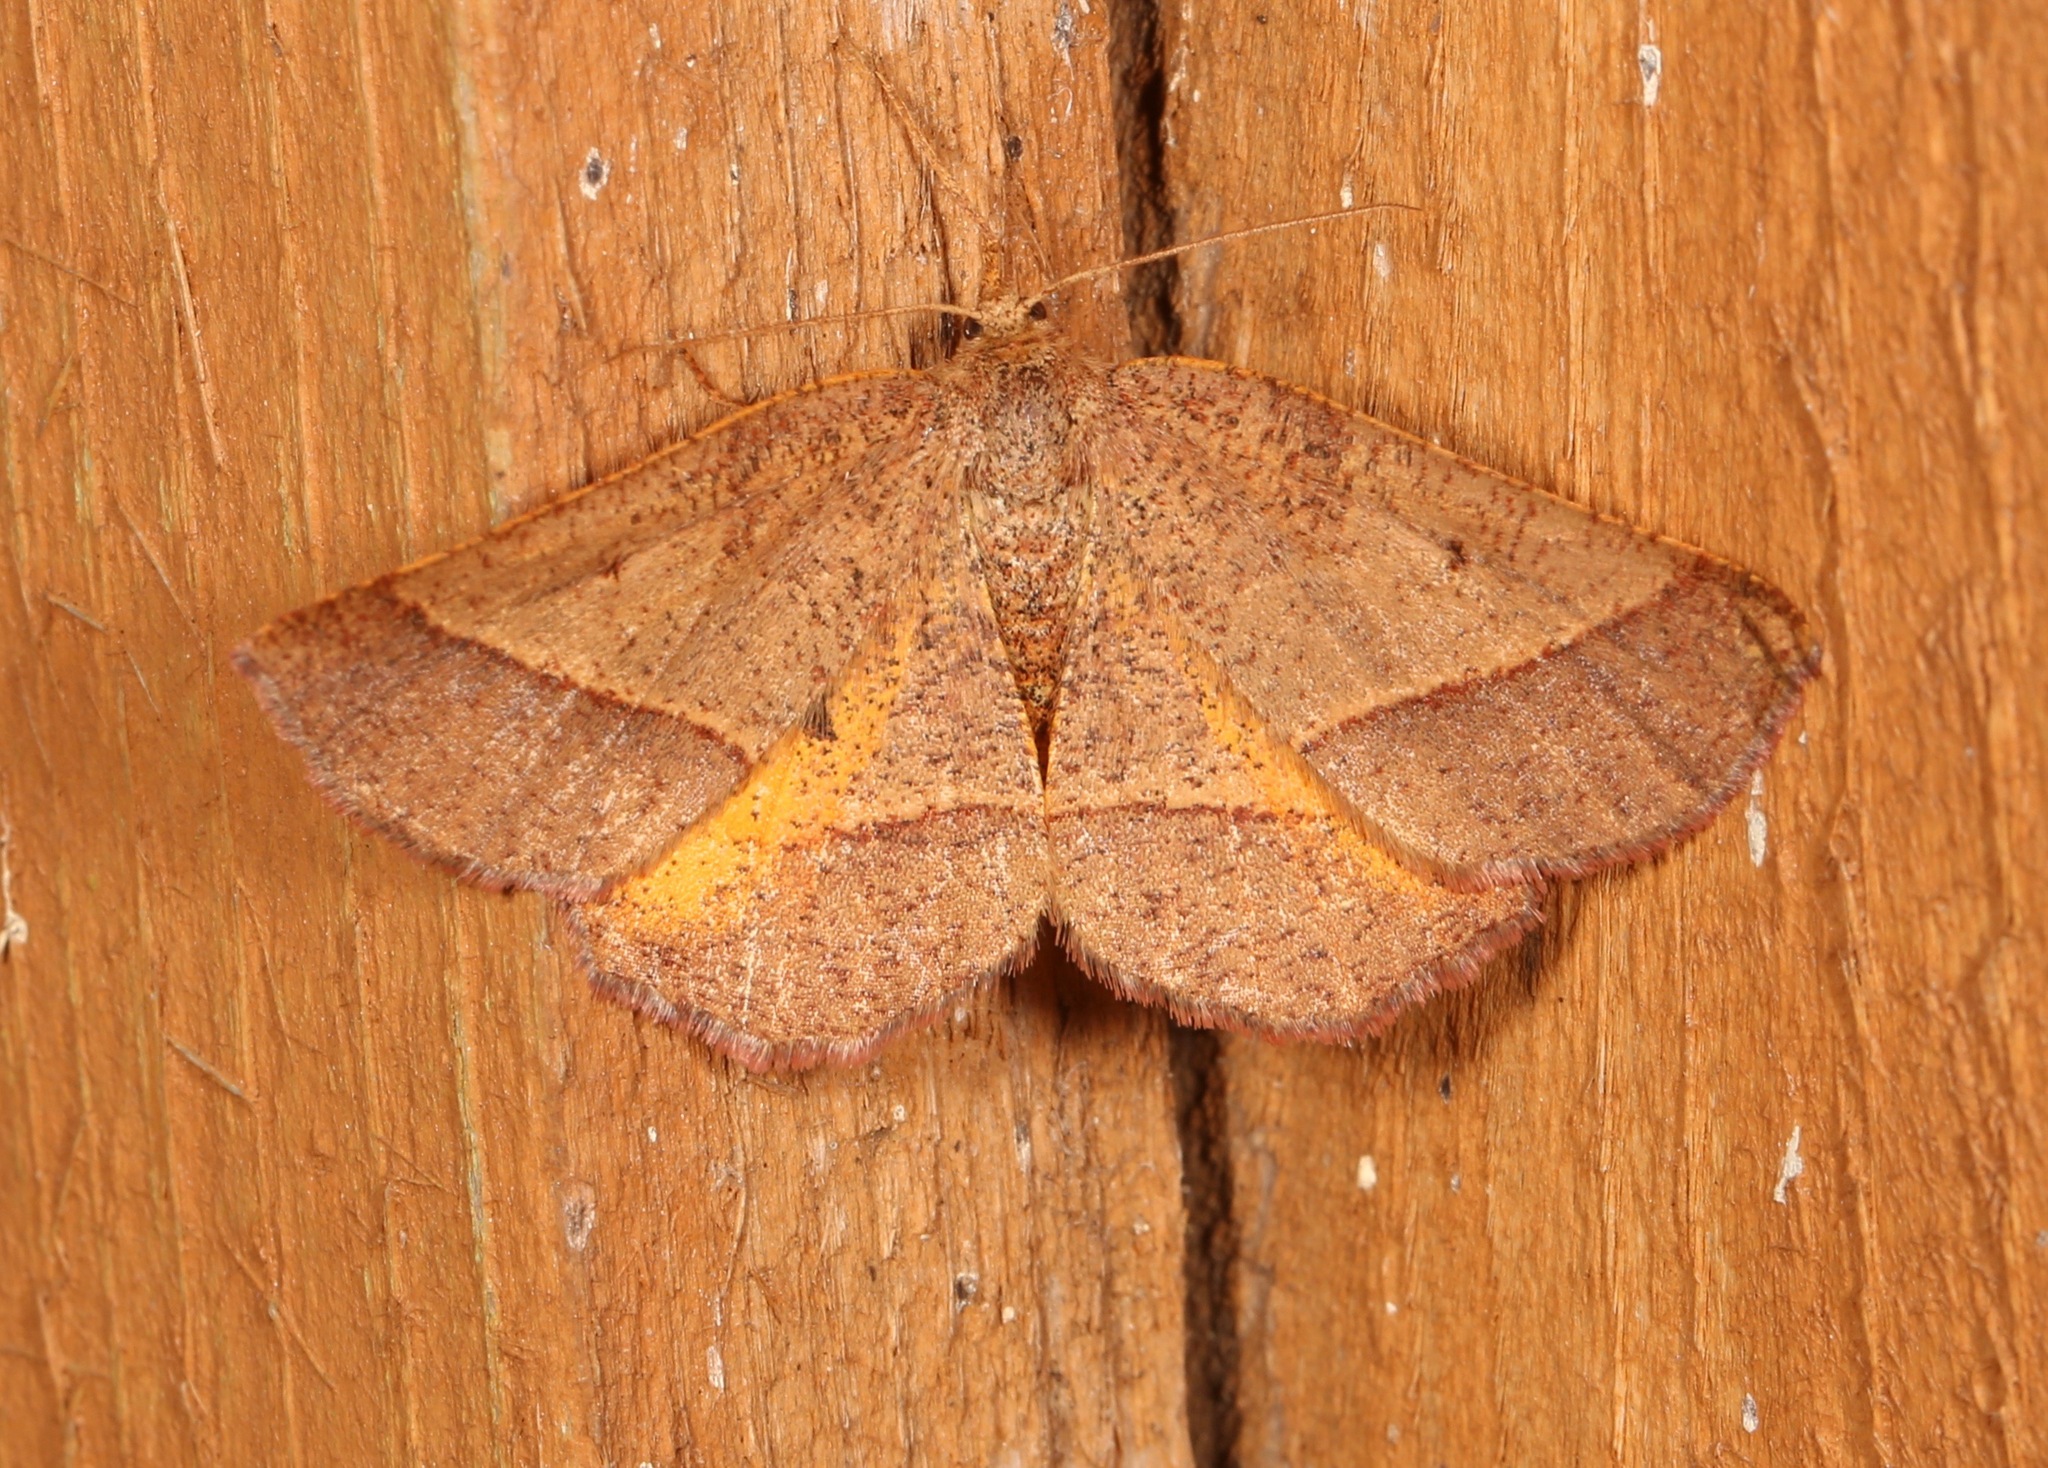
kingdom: Animalia
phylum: Arthropoda
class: Insecta
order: Lepidoptera
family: Geometridae
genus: Metarranthis
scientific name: Metarranthis obfirmaria
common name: Yellow-washed metarranthis
